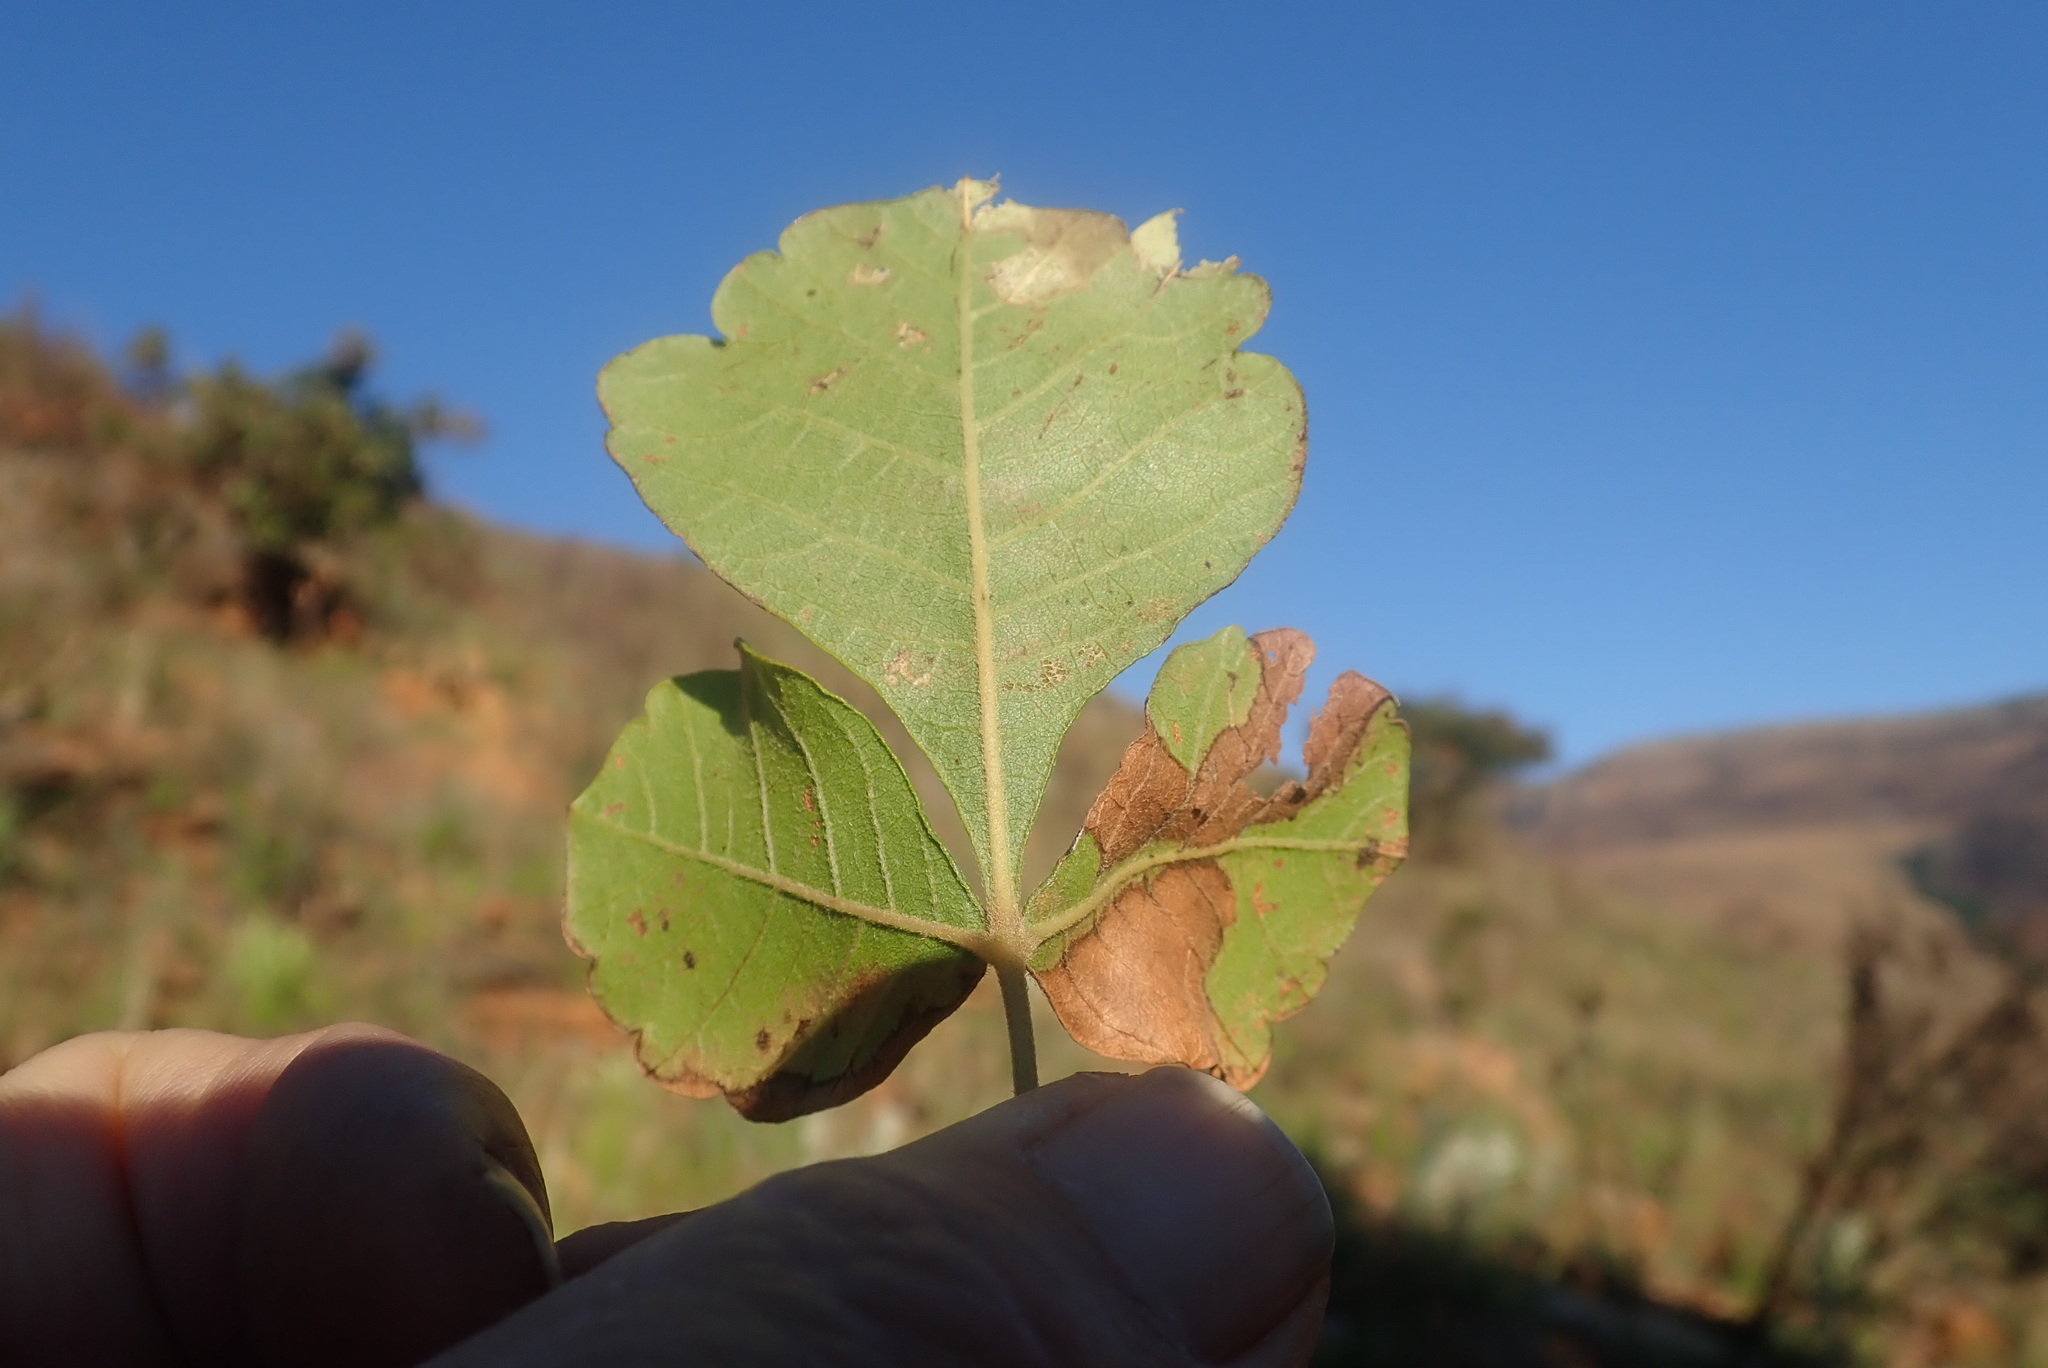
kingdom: Plantae
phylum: Tracheophyta
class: Magnoliopsida
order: Sapindales
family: Anacardiaceae
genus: Searsia
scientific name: Searsia rehmanniana
